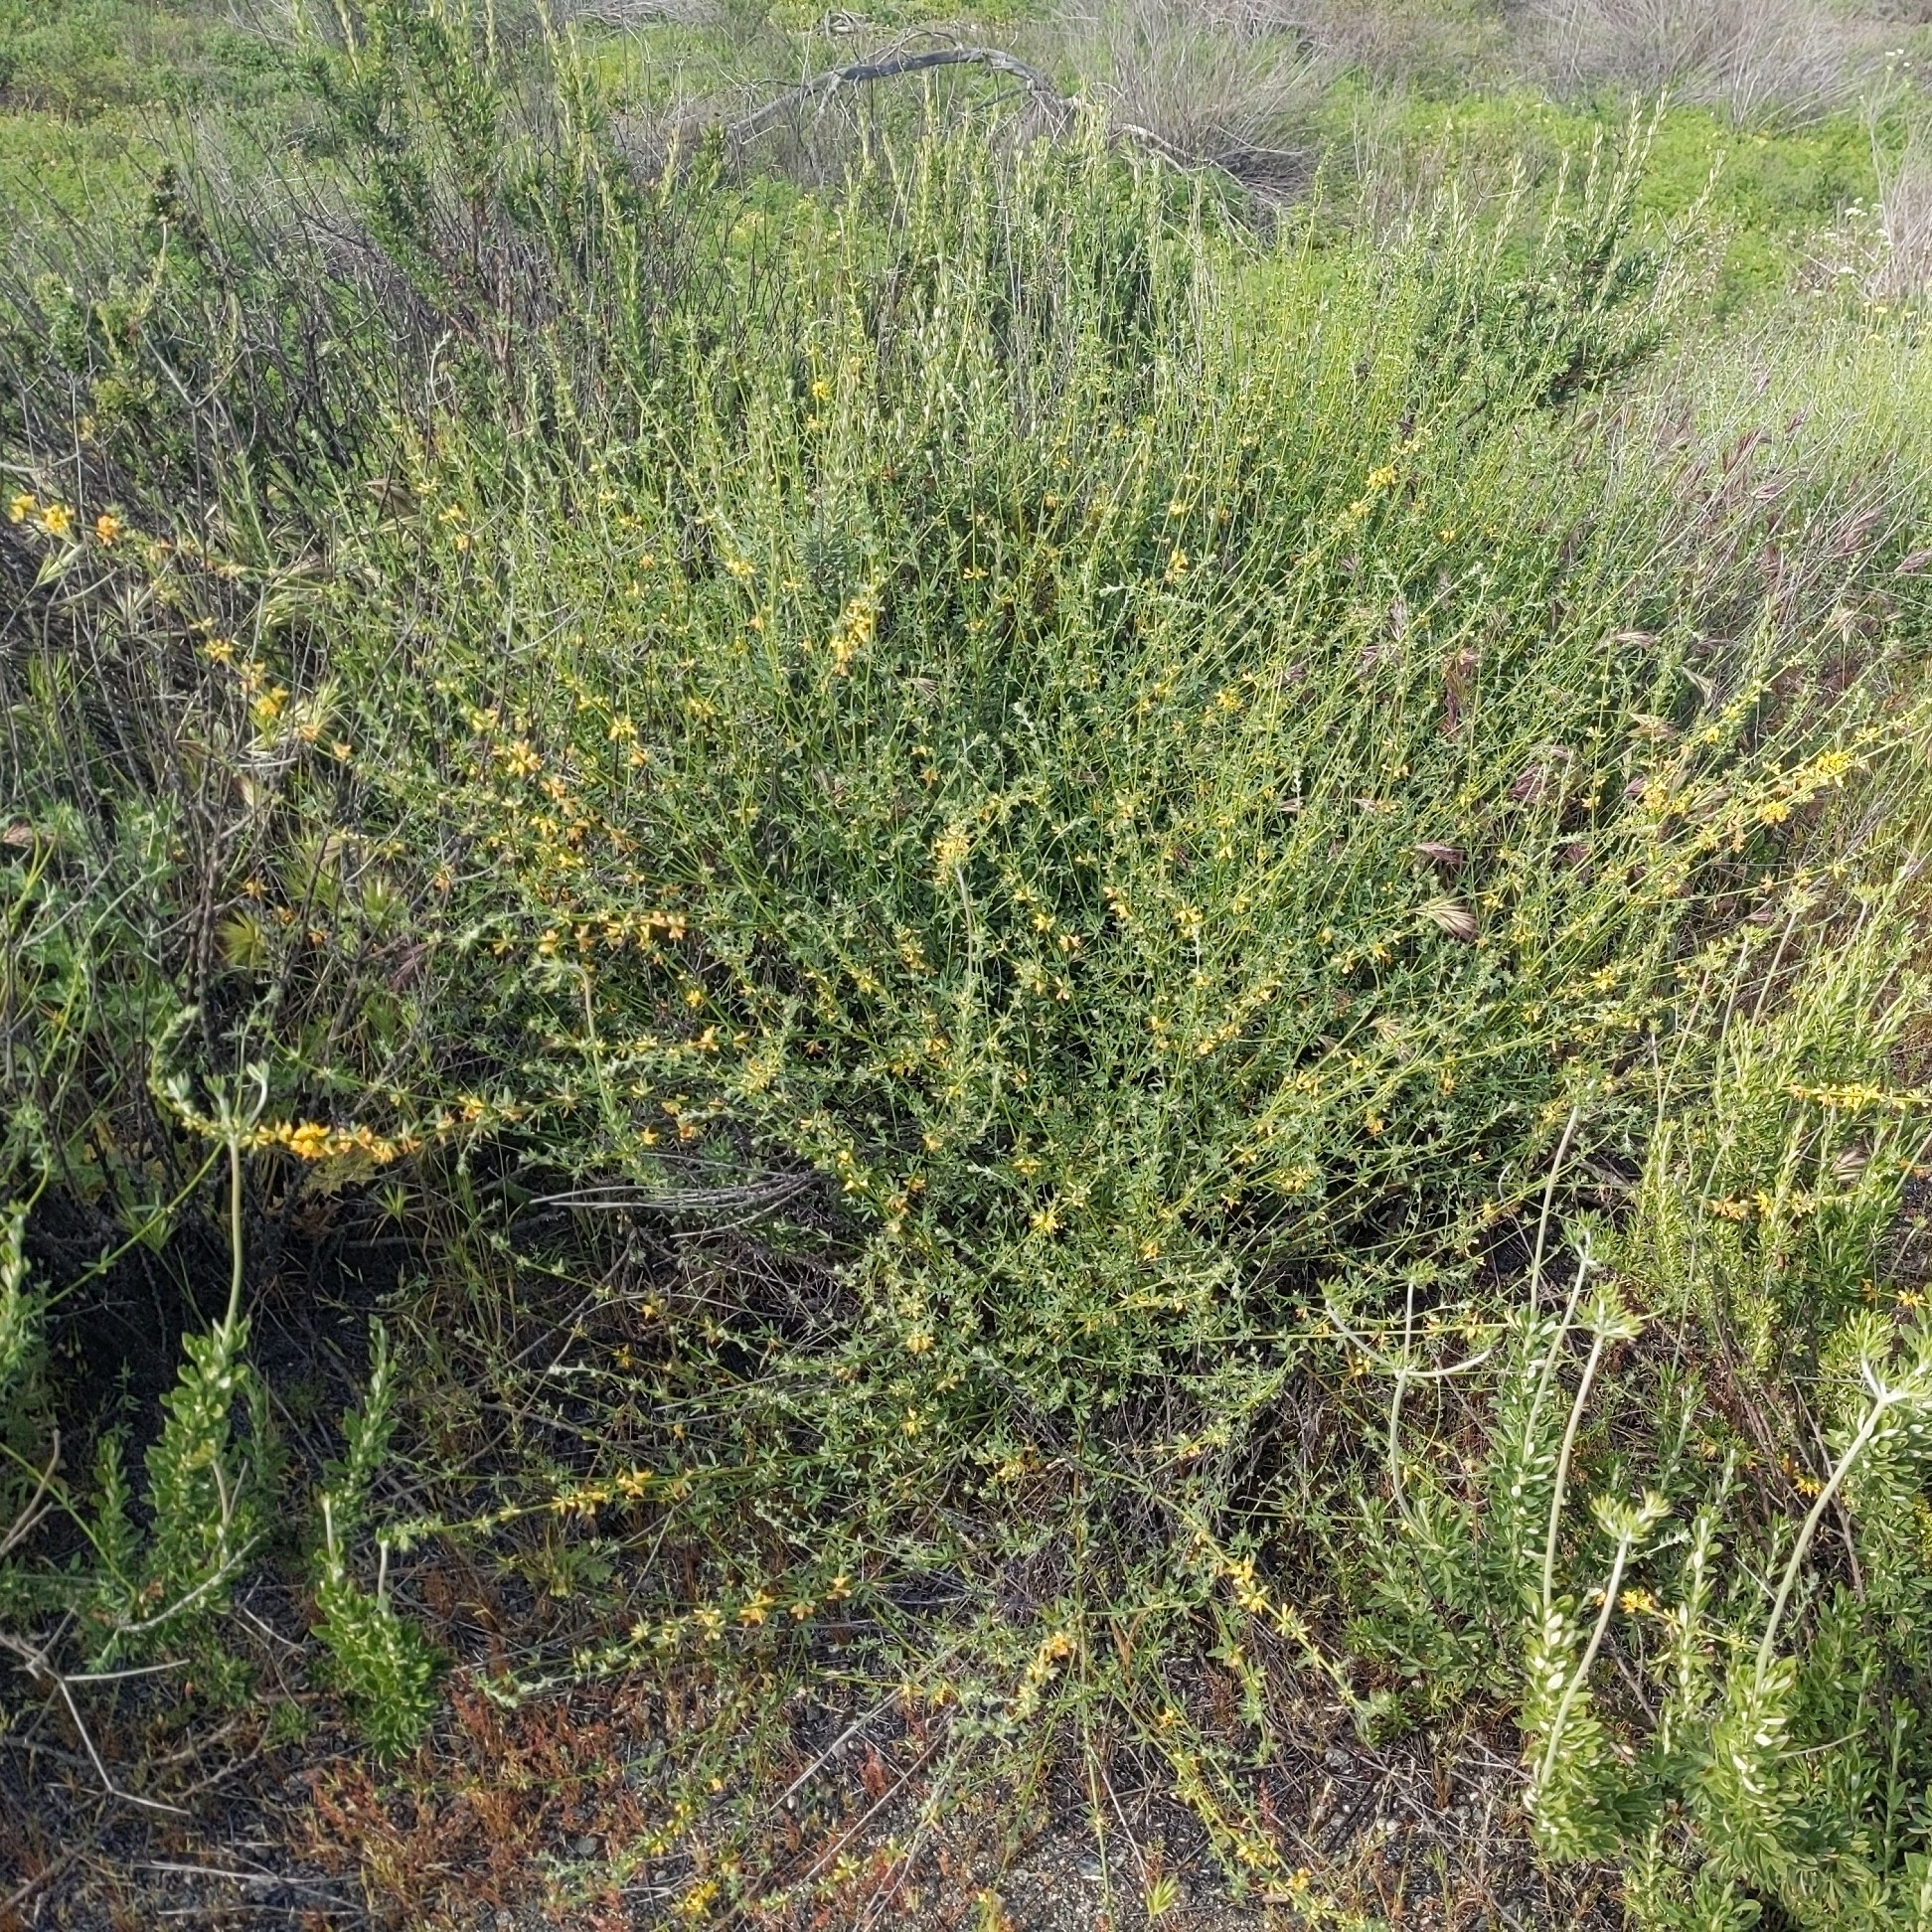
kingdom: Plantae
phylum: Tracheophyta
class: Magnoliopsida
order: Fabales
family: Fabaceae
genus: Acmispon
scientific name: Acmispon glaber
